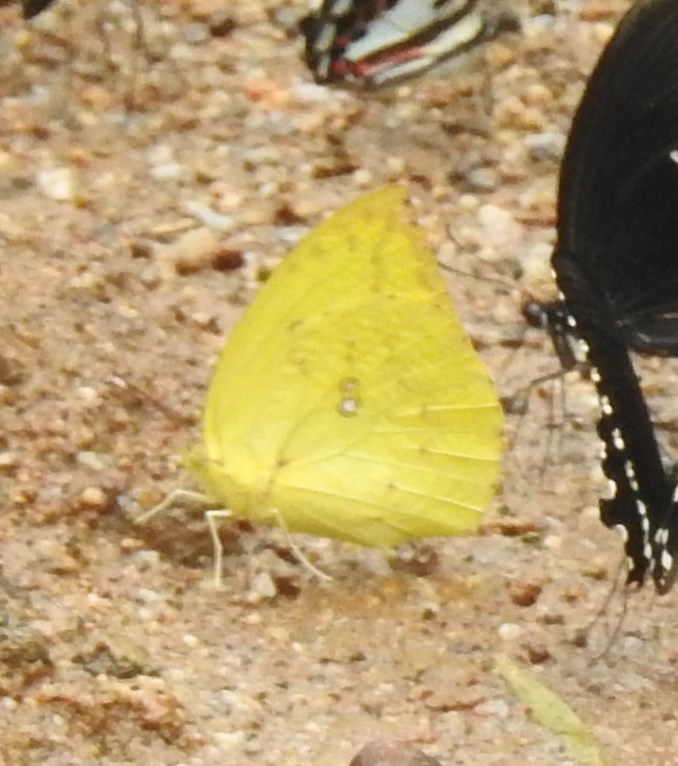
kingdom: Animalia
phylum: Arthropoda
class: Insecta
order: Lepidoptera
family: Pieridae
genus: Catopsilia
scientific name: Catopsilia pomona
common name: Common emigrant
